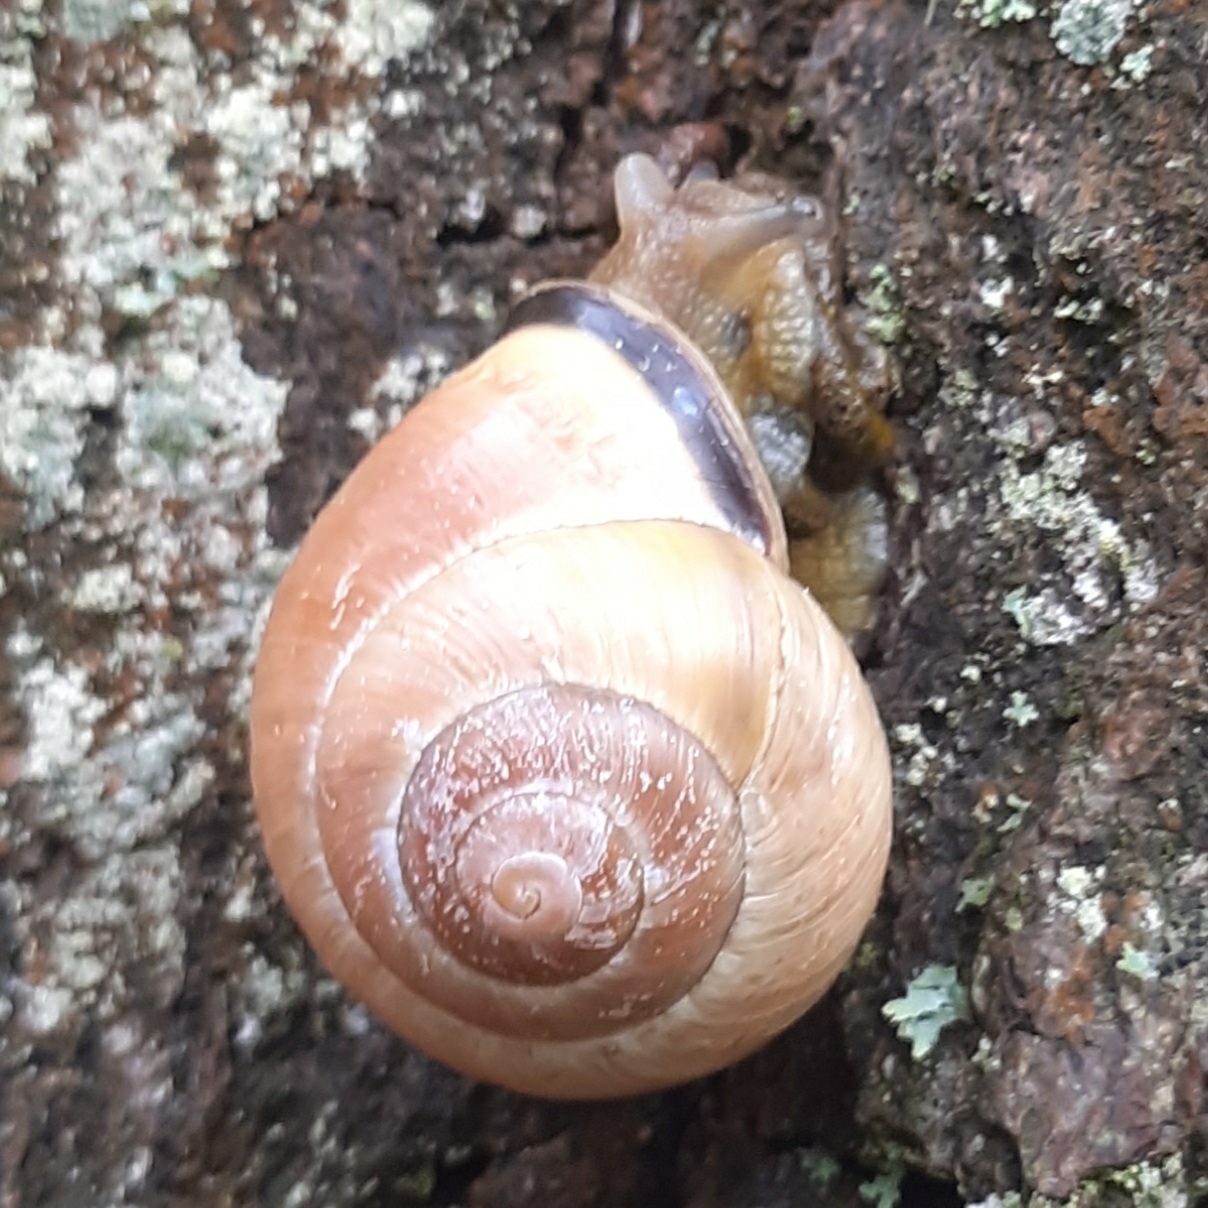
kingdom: Animalia
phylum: Mollusca
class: Gastropoda
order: Stylommatophora
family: Helicidae
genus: Cepaea
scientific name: Cepaea nemoralis
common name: Grovesnail
